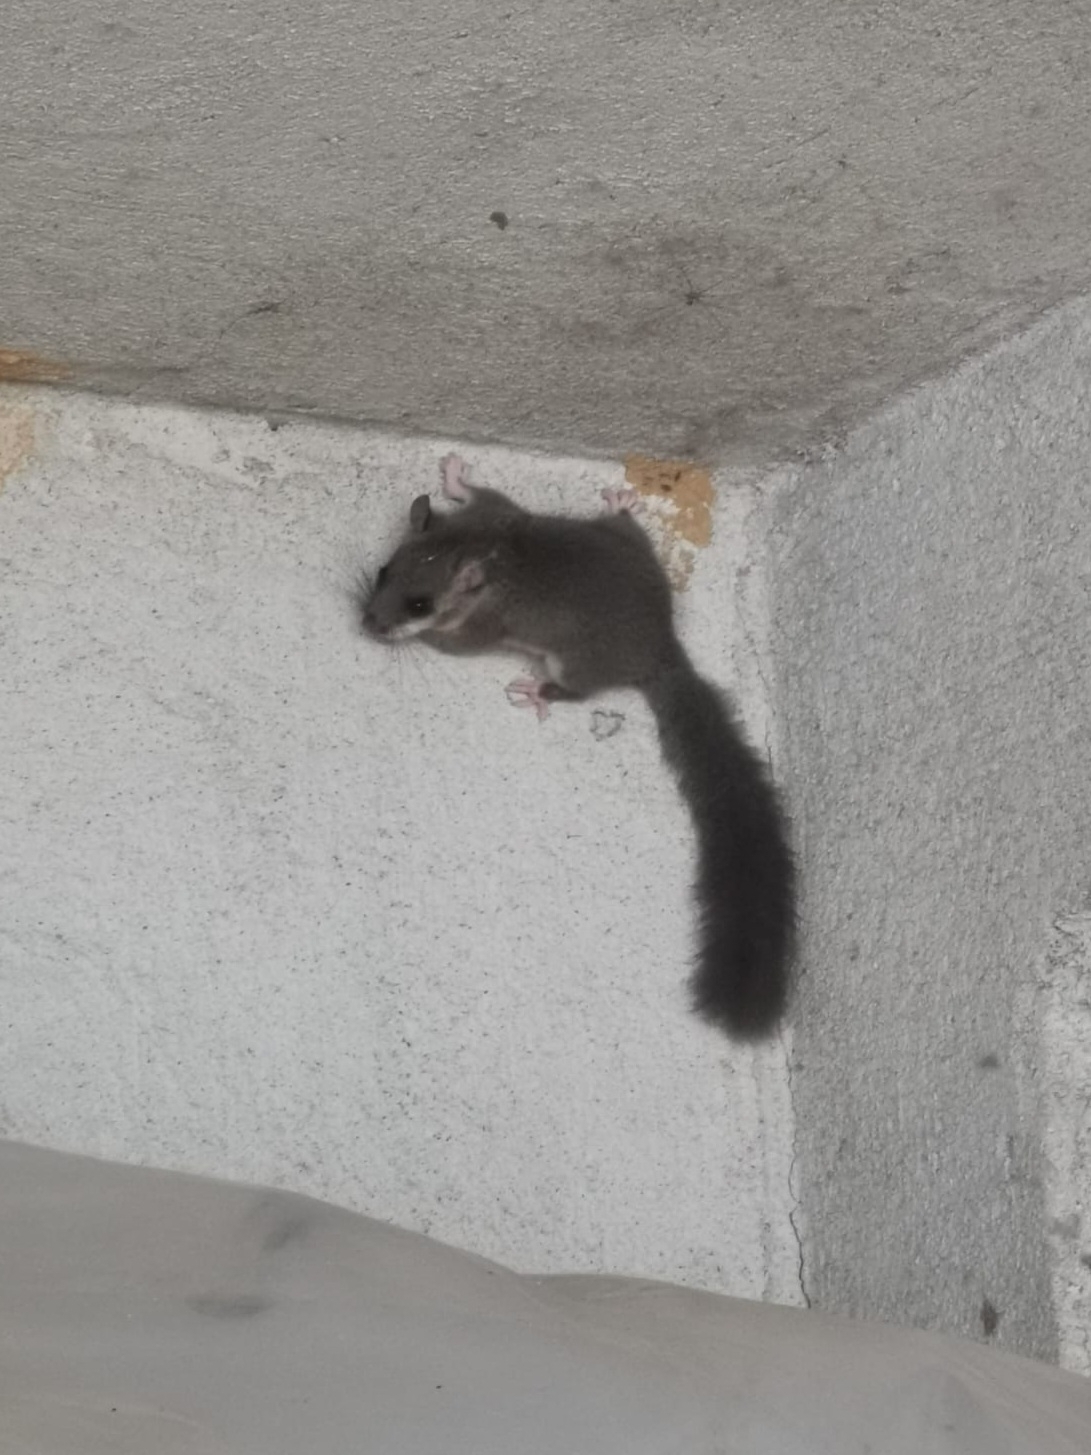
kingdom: Animalia
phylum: Chordata
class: Mammalia
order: Rodentia
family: Gliridae
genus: Glis
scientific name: Glis glis
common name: Fat dormouse
